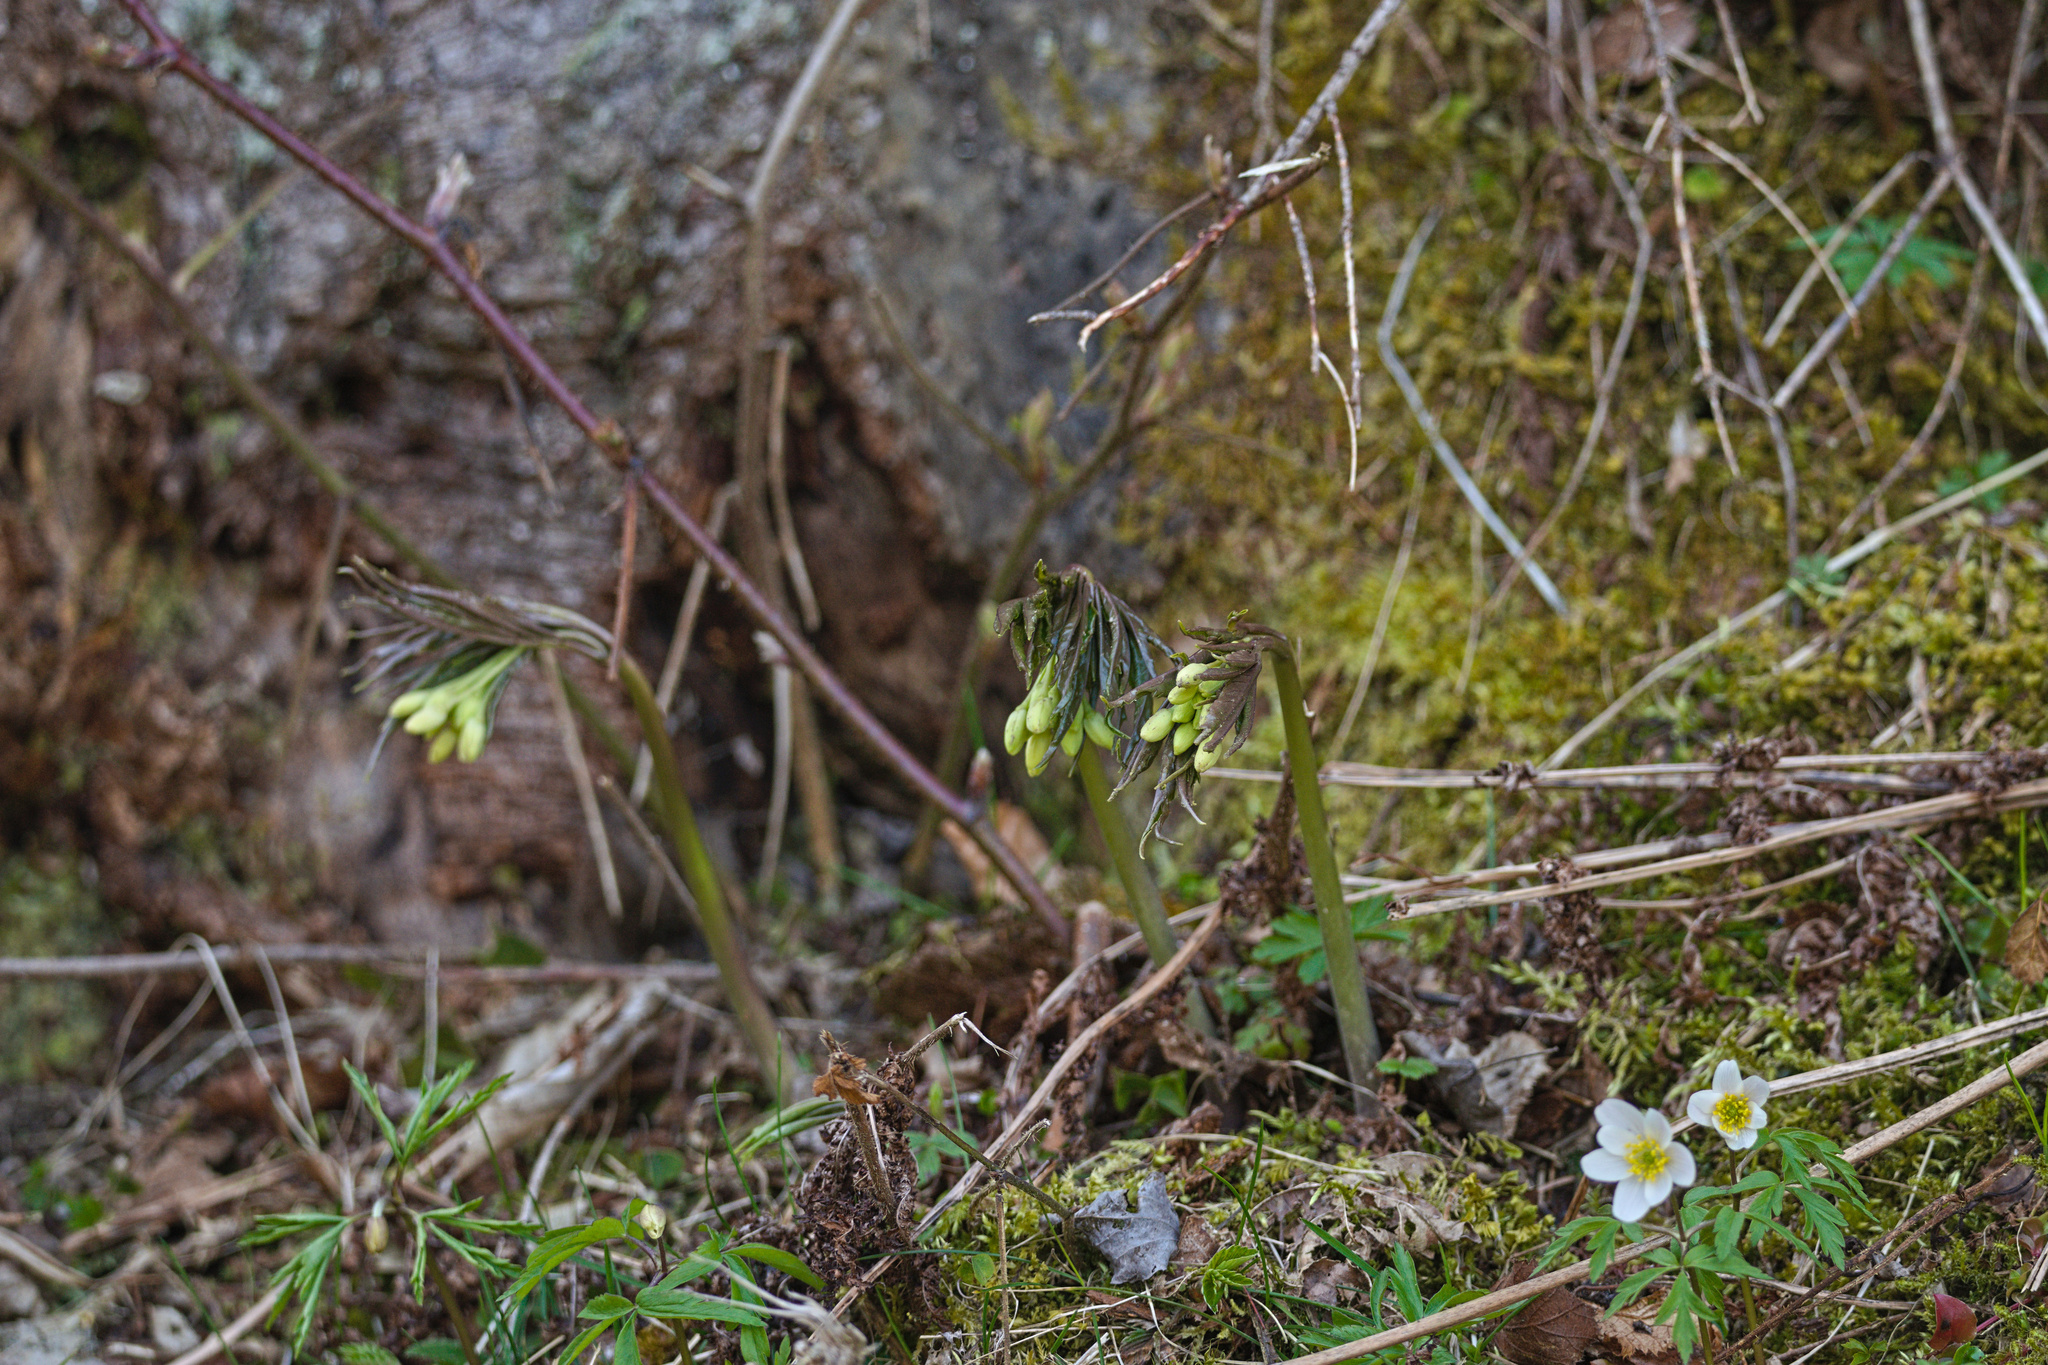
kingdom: Plantae
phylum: Tracheophyta
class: Magnoliopsida
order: Brassicales
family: Brassicaceae
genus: Cardamine
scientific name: Cardamine kitaibelii
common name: Kitaibel's bitter-cress
